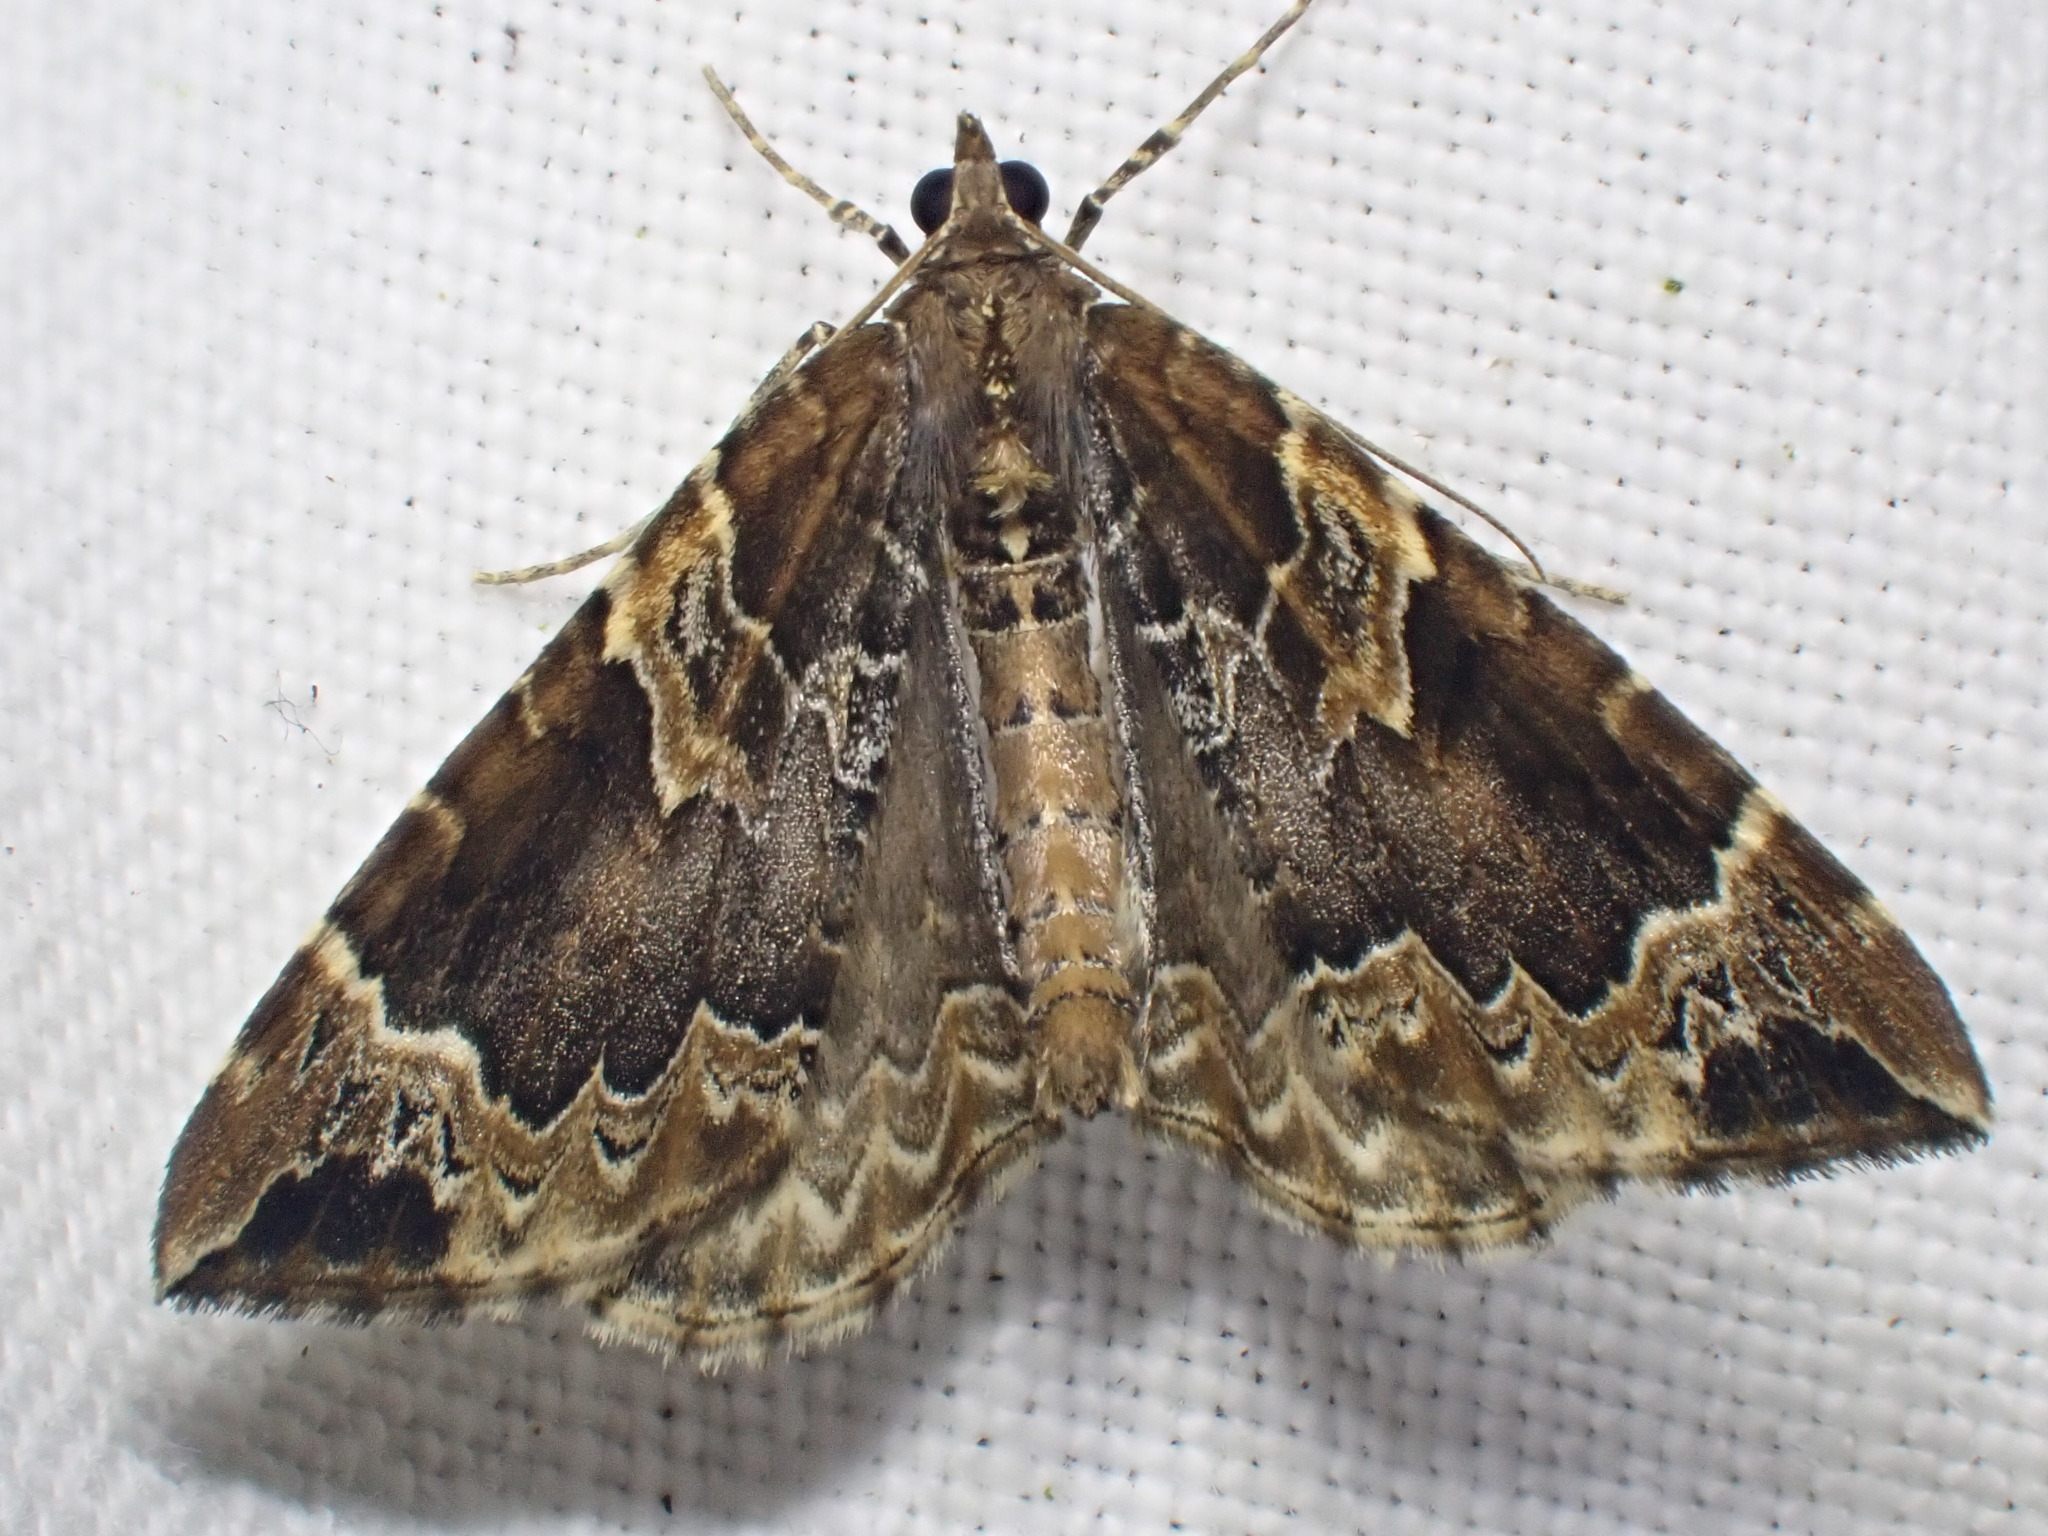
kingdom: Animalia
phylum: Arthropoda
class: Insecta
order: Lepidoptera
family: Geometridae
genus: Eulithis
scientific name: Eulithis prunata
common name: Phoenix
